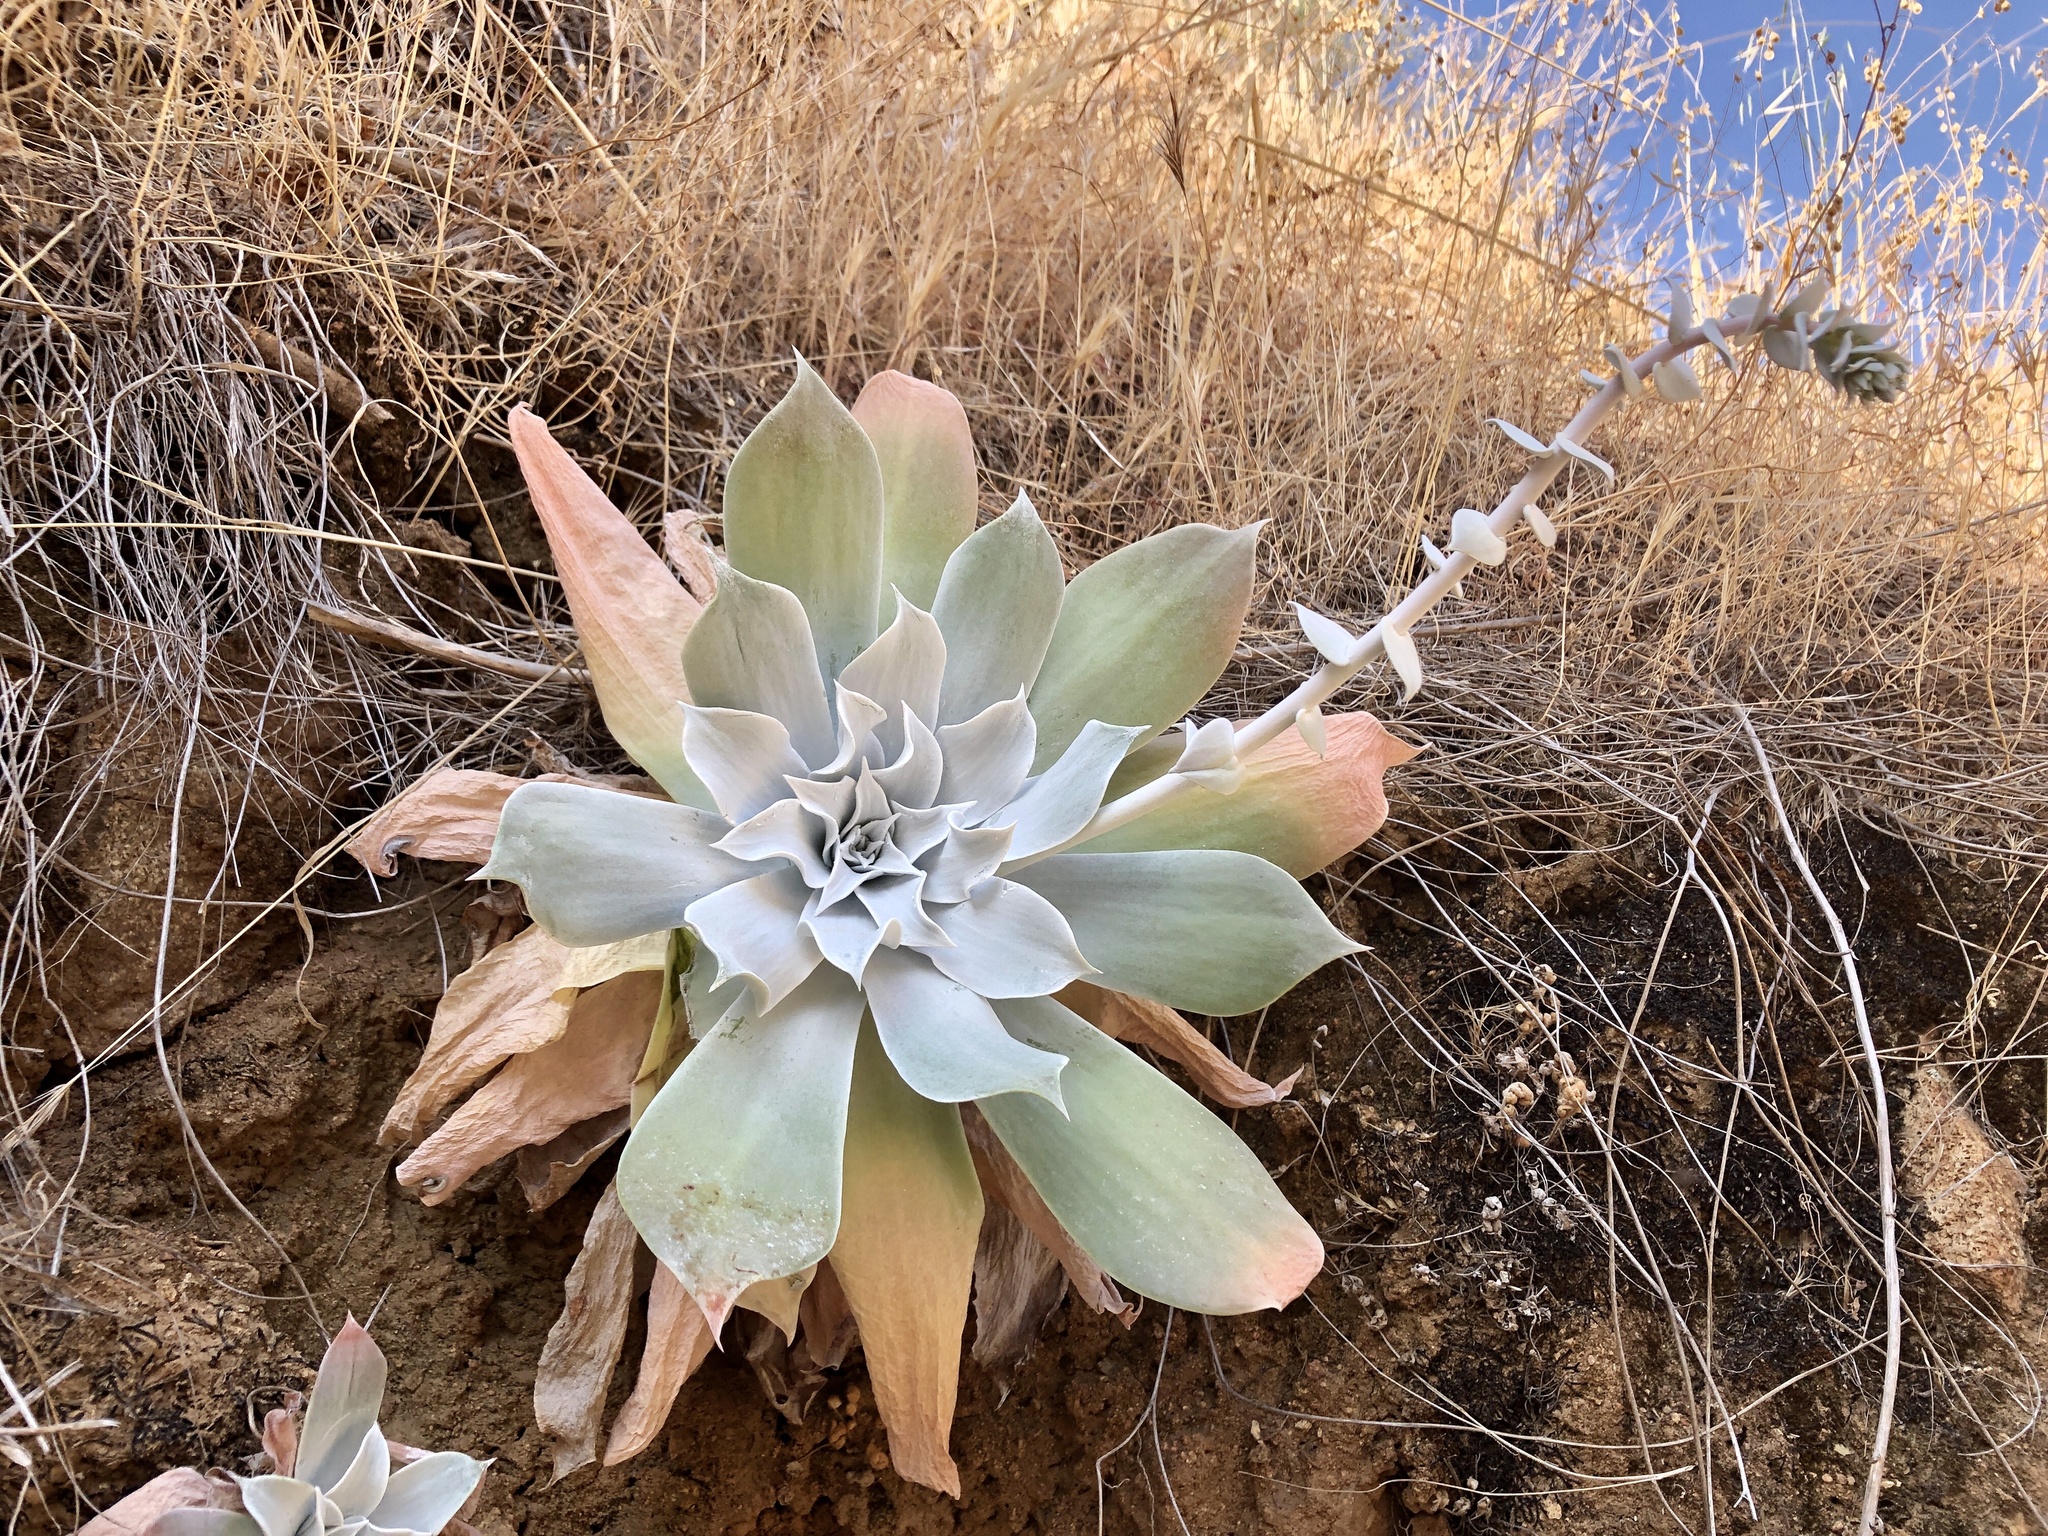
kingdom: Plantae
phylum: Tracheophyta
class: Magnoliopsida
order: Saxifragales
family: Crassulaceae
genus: Dudleya
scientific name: Dudleya pulverulenta
